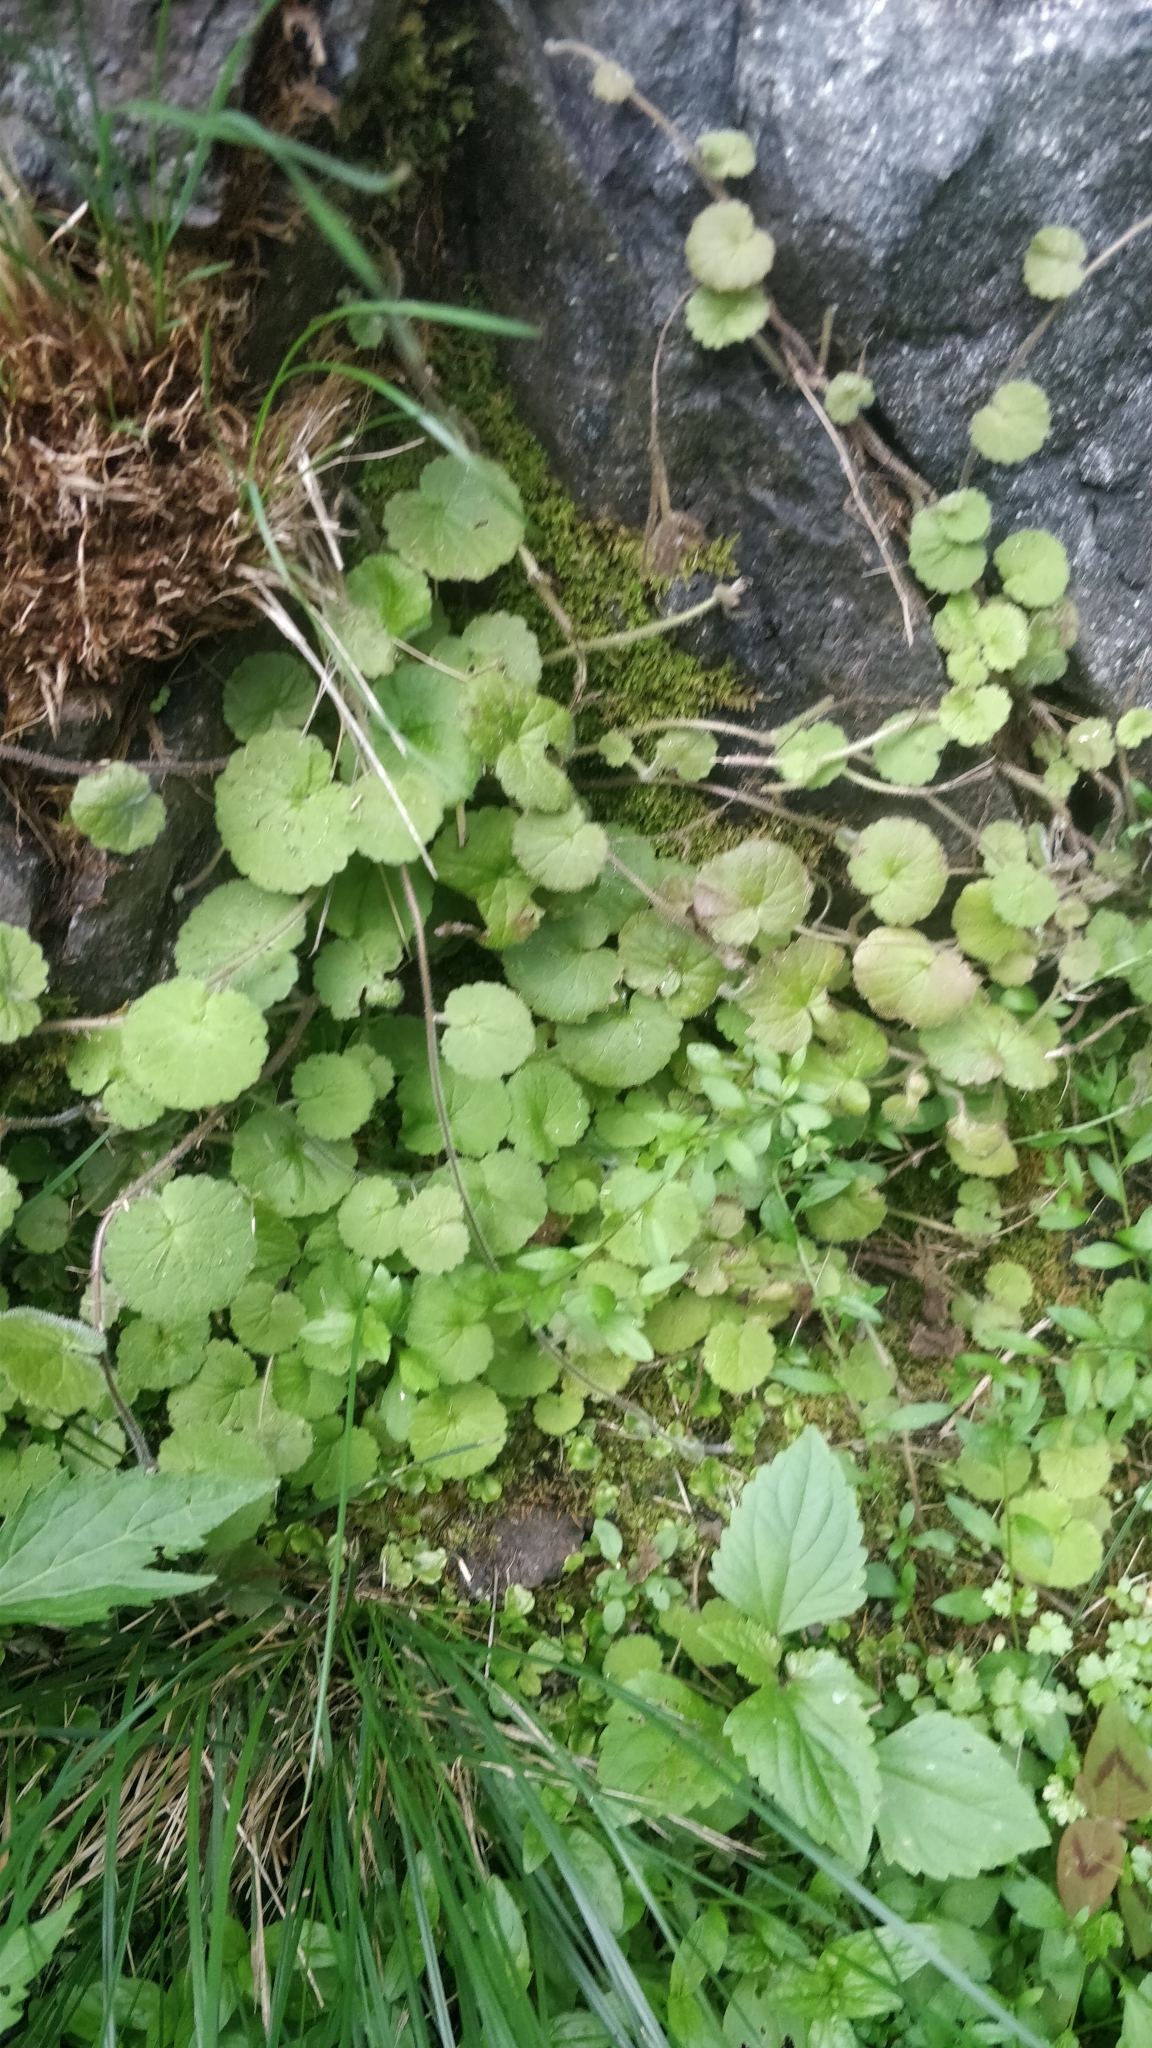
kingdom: Plantae
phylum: Tracheophyta
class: Magnoliopsida
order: Lamiales
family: Plantaginaceae
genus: Sibthorpia
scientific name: Sibthorpia peregrina
